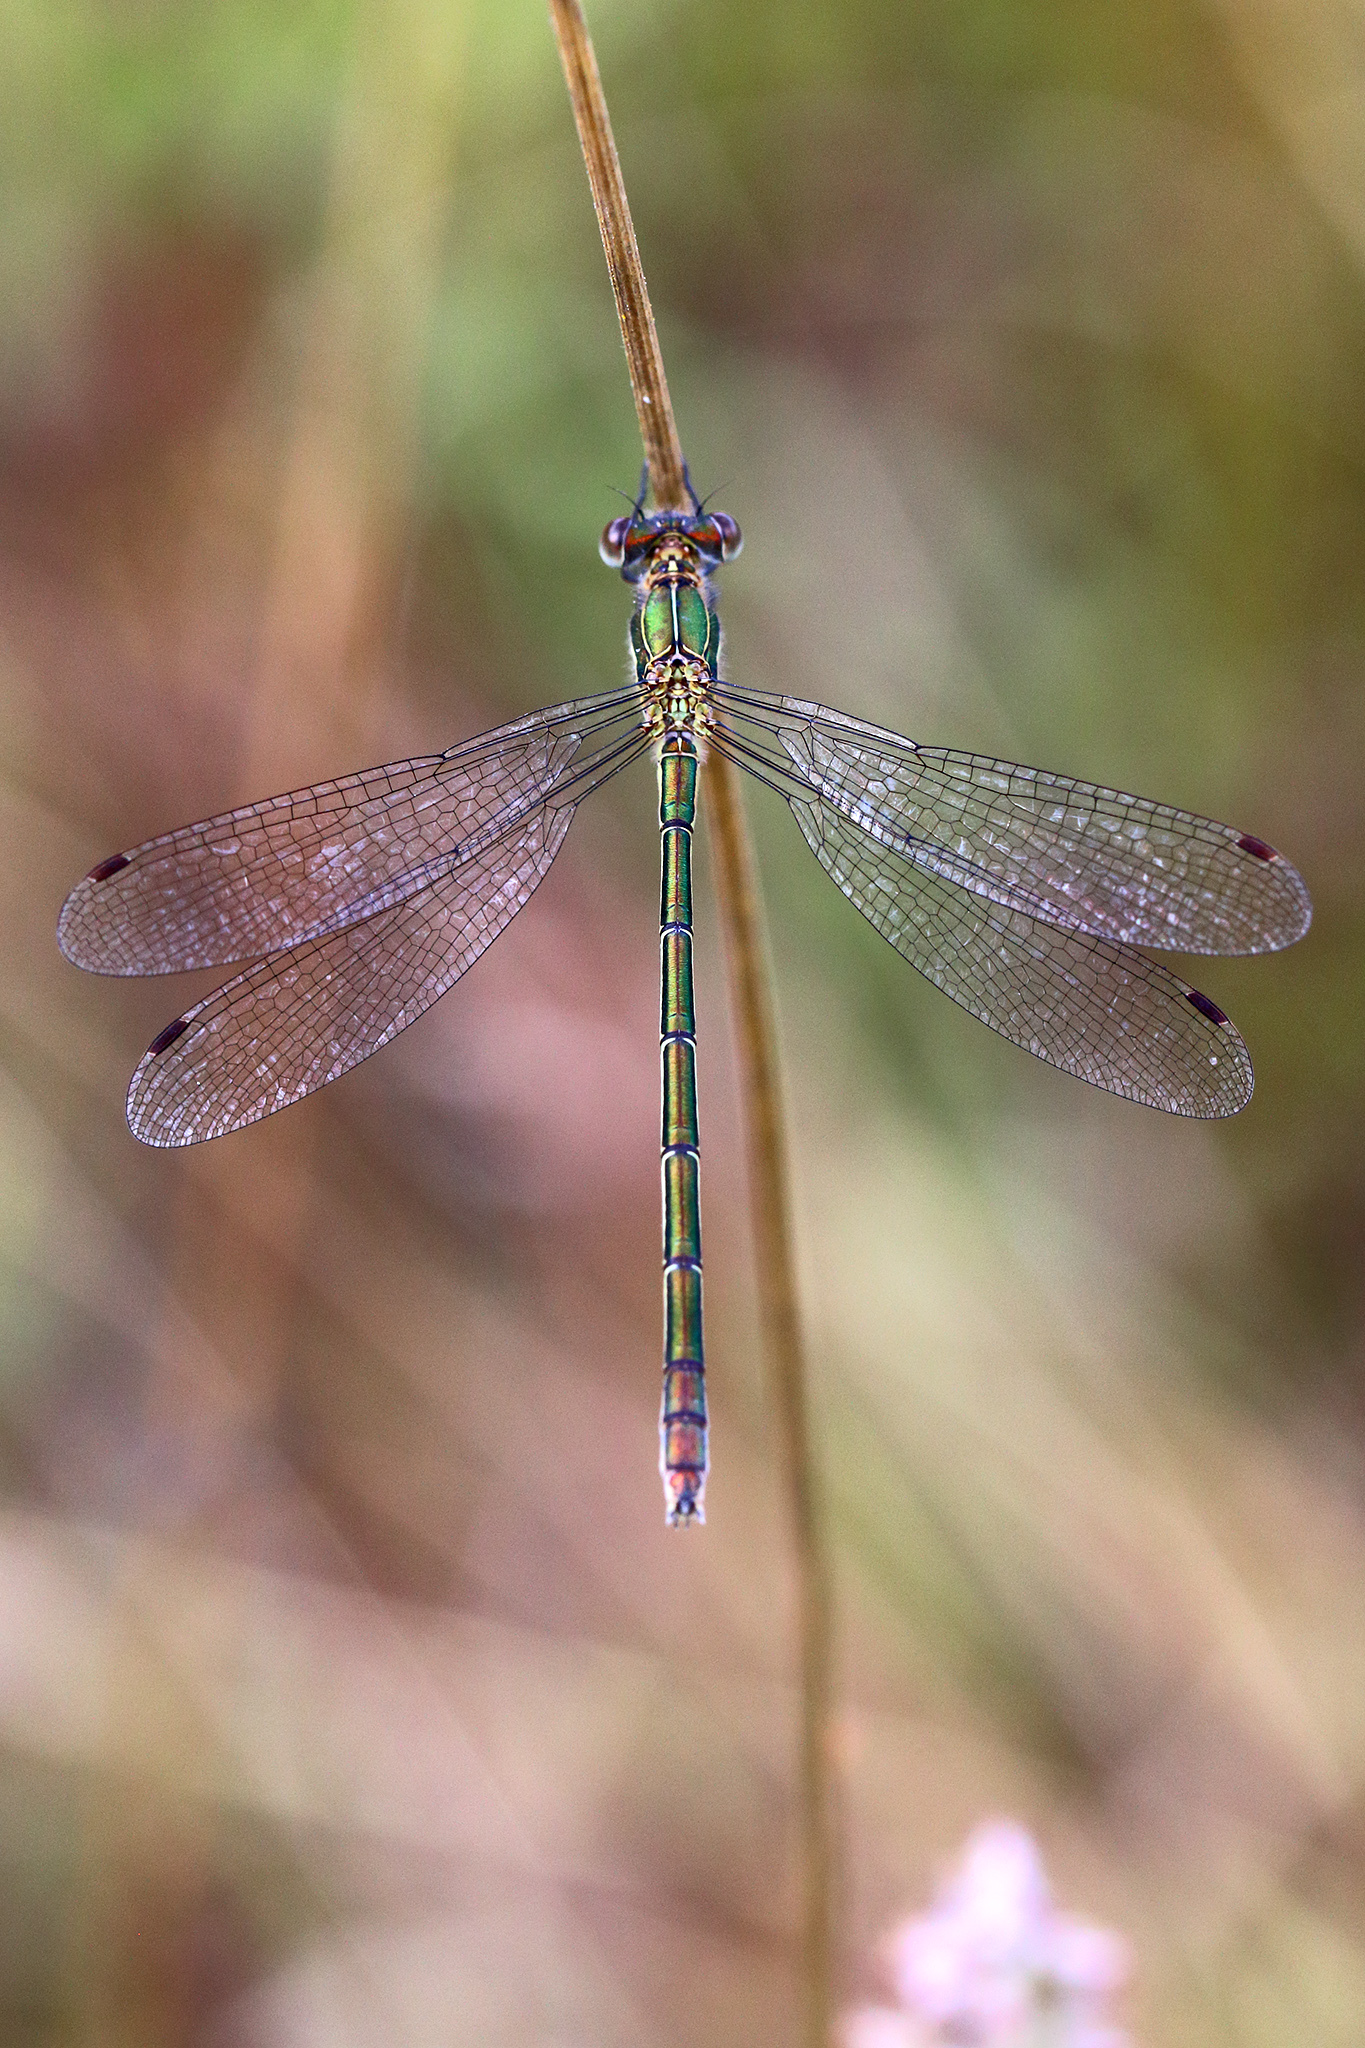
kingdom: Animalia
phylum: Arthropoda
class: Insecta
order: Odonata
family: Lestidae
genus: Lestes
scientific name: Lestes sponsa
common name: Common spreadwing
